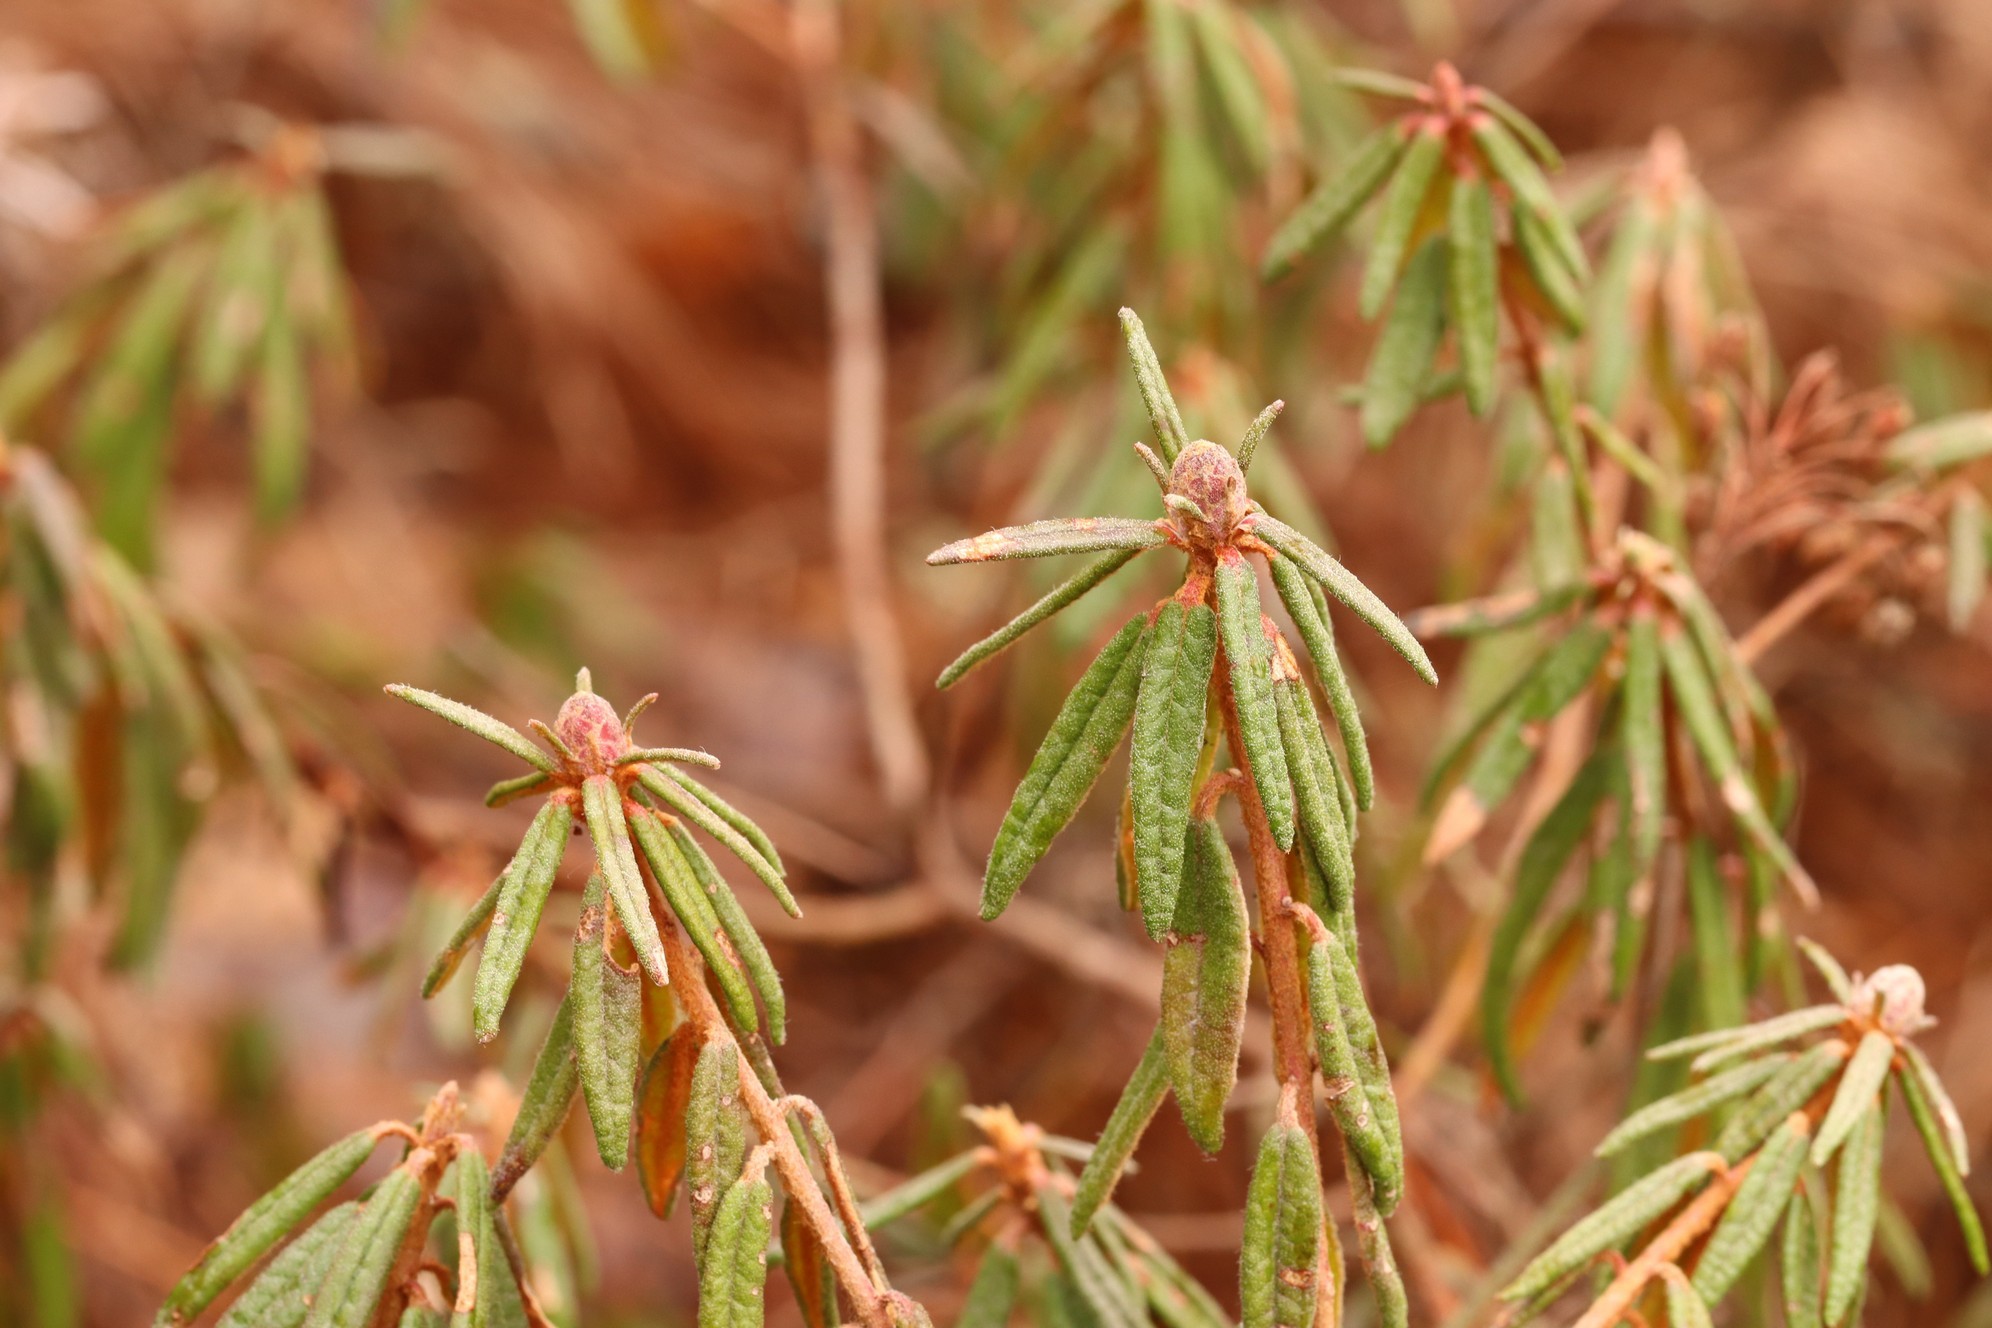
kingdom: Plantae
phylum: Tracheophyta
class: Magnoliopsida
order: Ericales
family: Ericaceae
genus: Rhododendron
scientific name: Rhododendron tomentosum
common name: Marsh labrador tea
